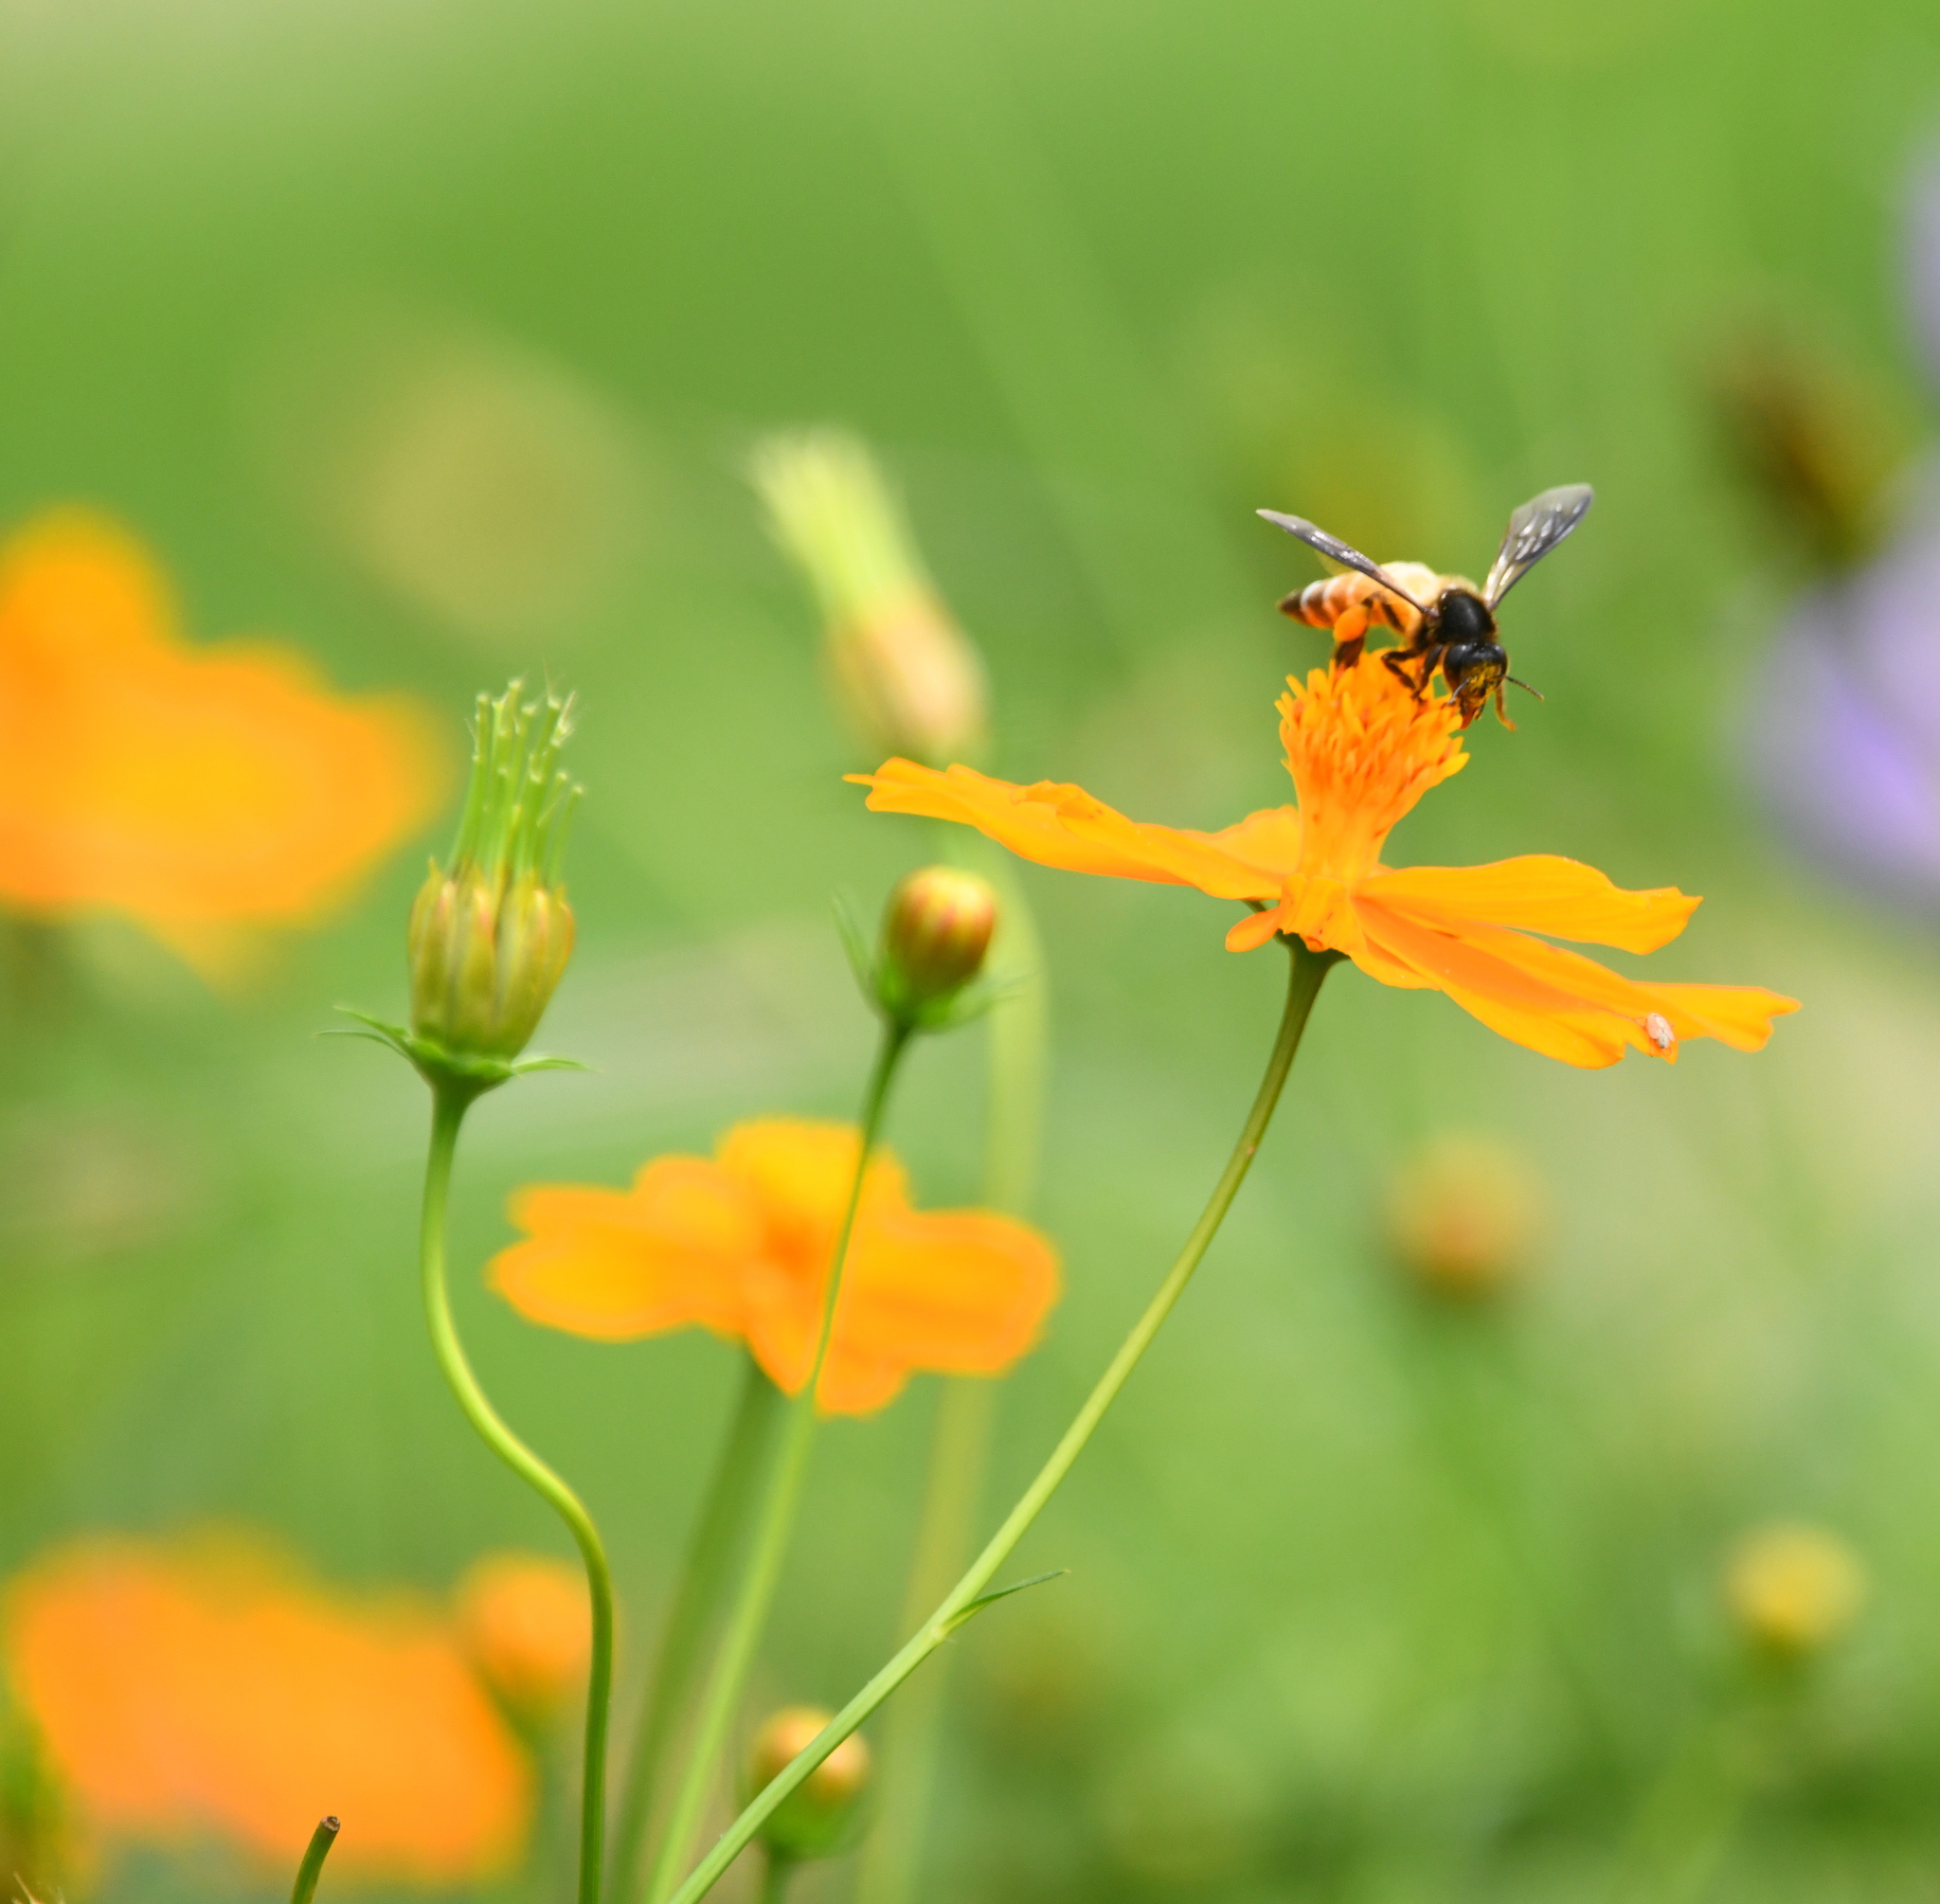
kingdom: Animalia
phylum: Arthropoda
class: Insecta
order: Hymenoptera
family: Apidae
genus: Apis
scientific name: Apis dorsata
